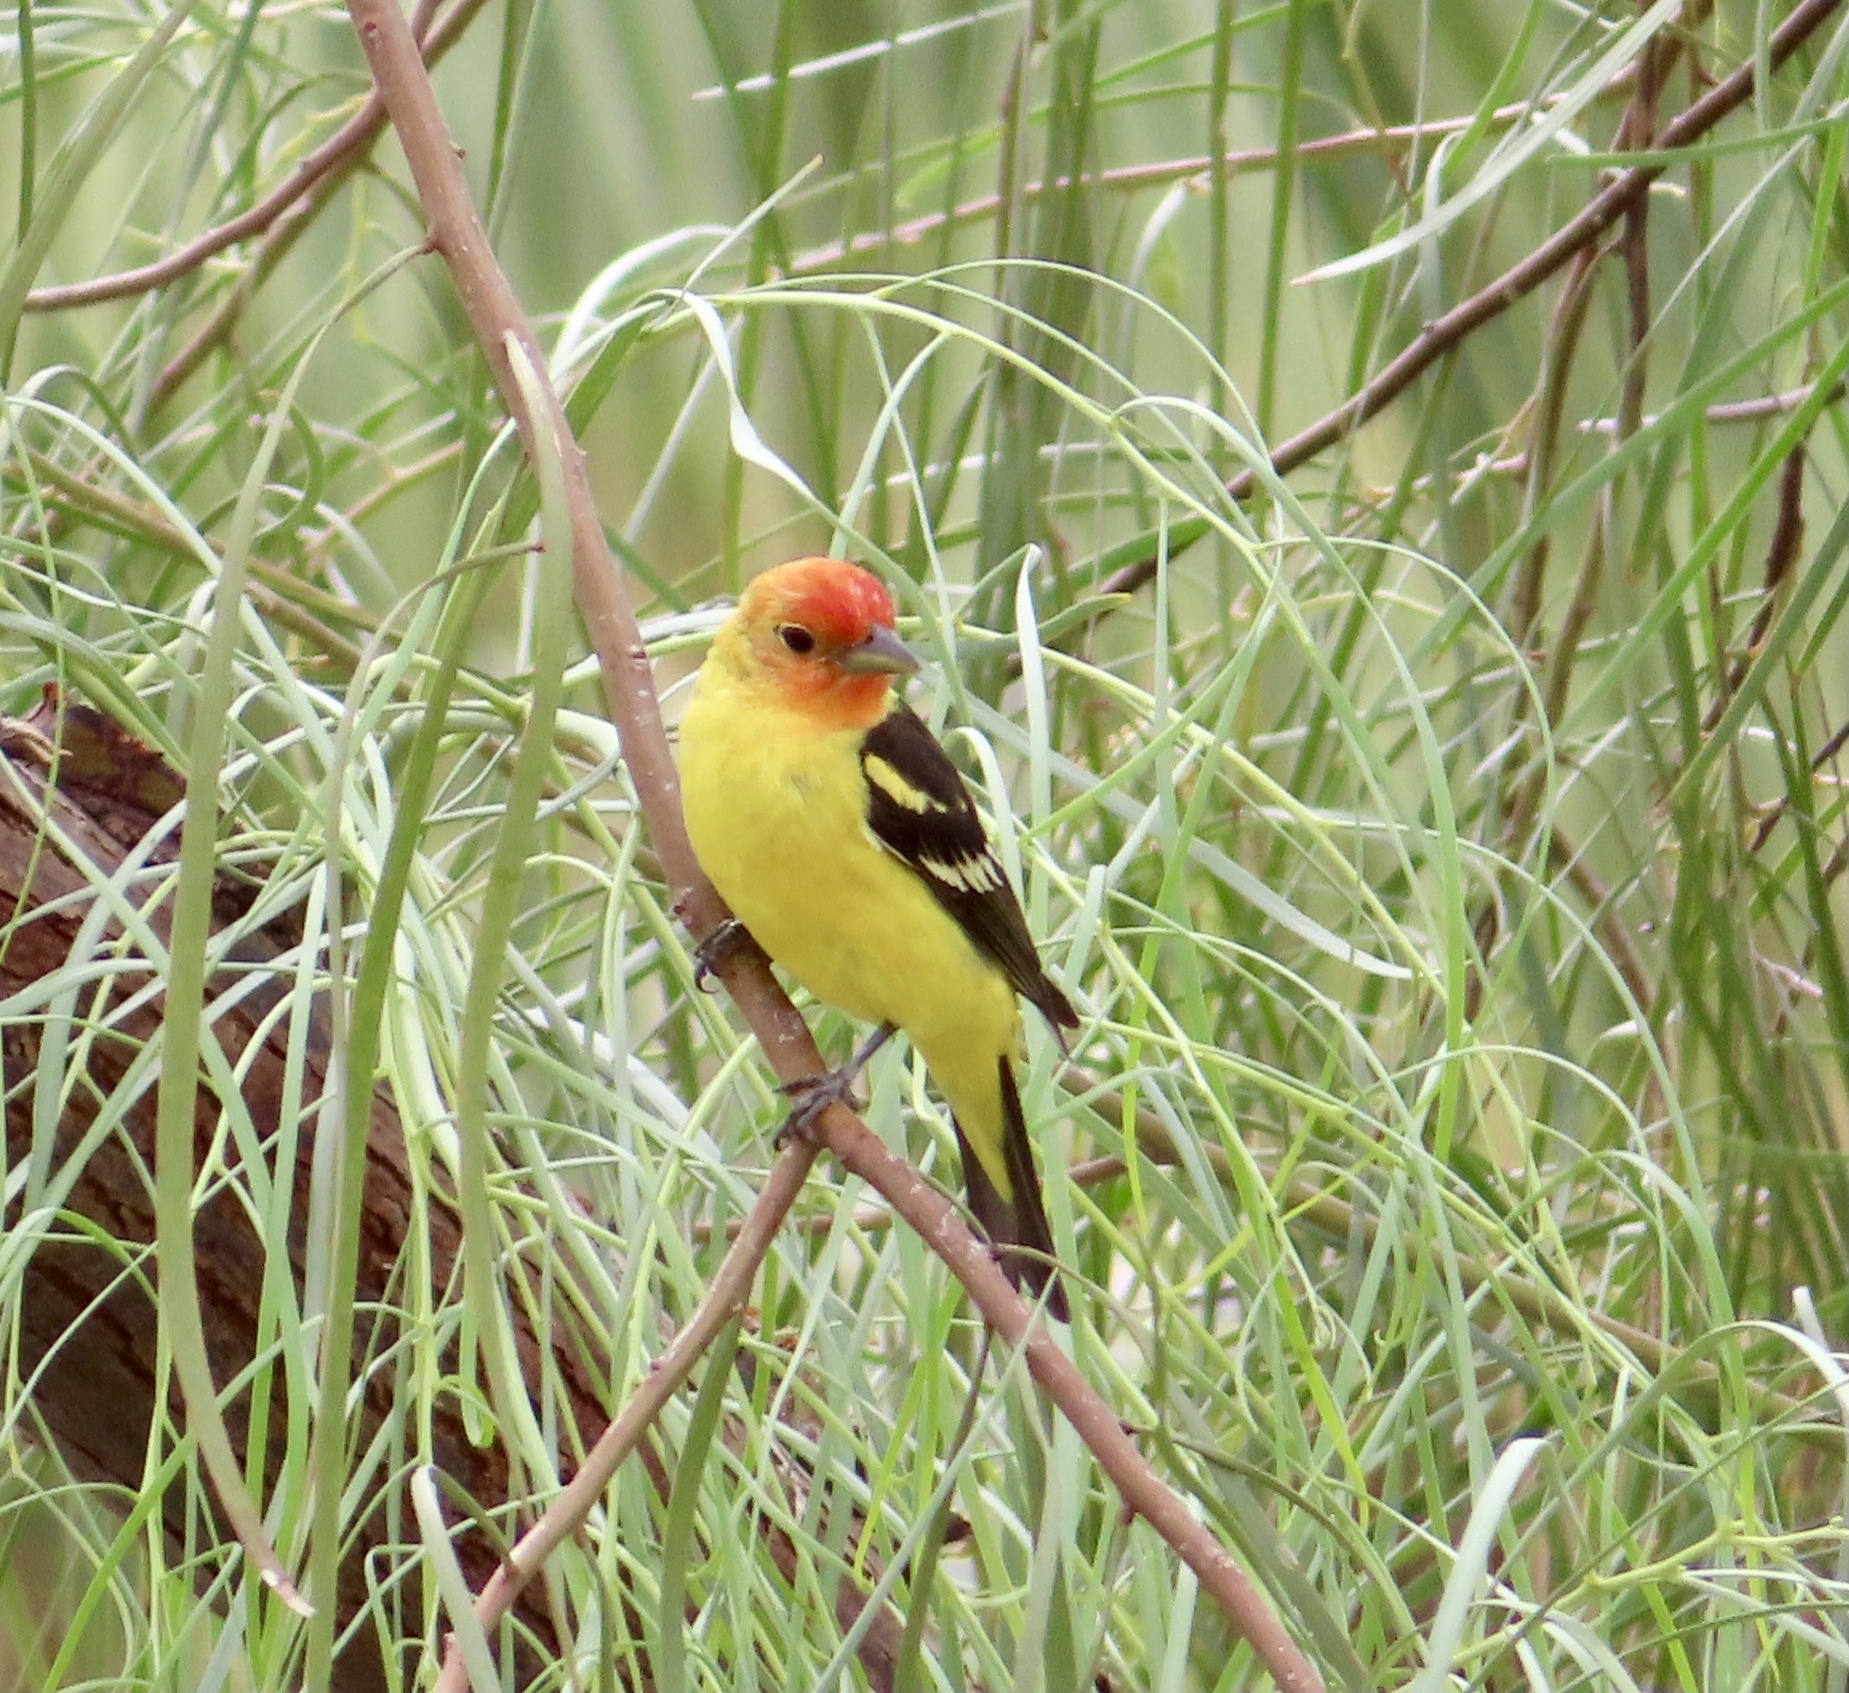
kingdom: Animalia
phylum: Chordata
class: Aves
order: Passeriformes
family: Cardinalidae
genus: Piranga
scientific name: Piranga ludoviciana
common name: Western tanager
